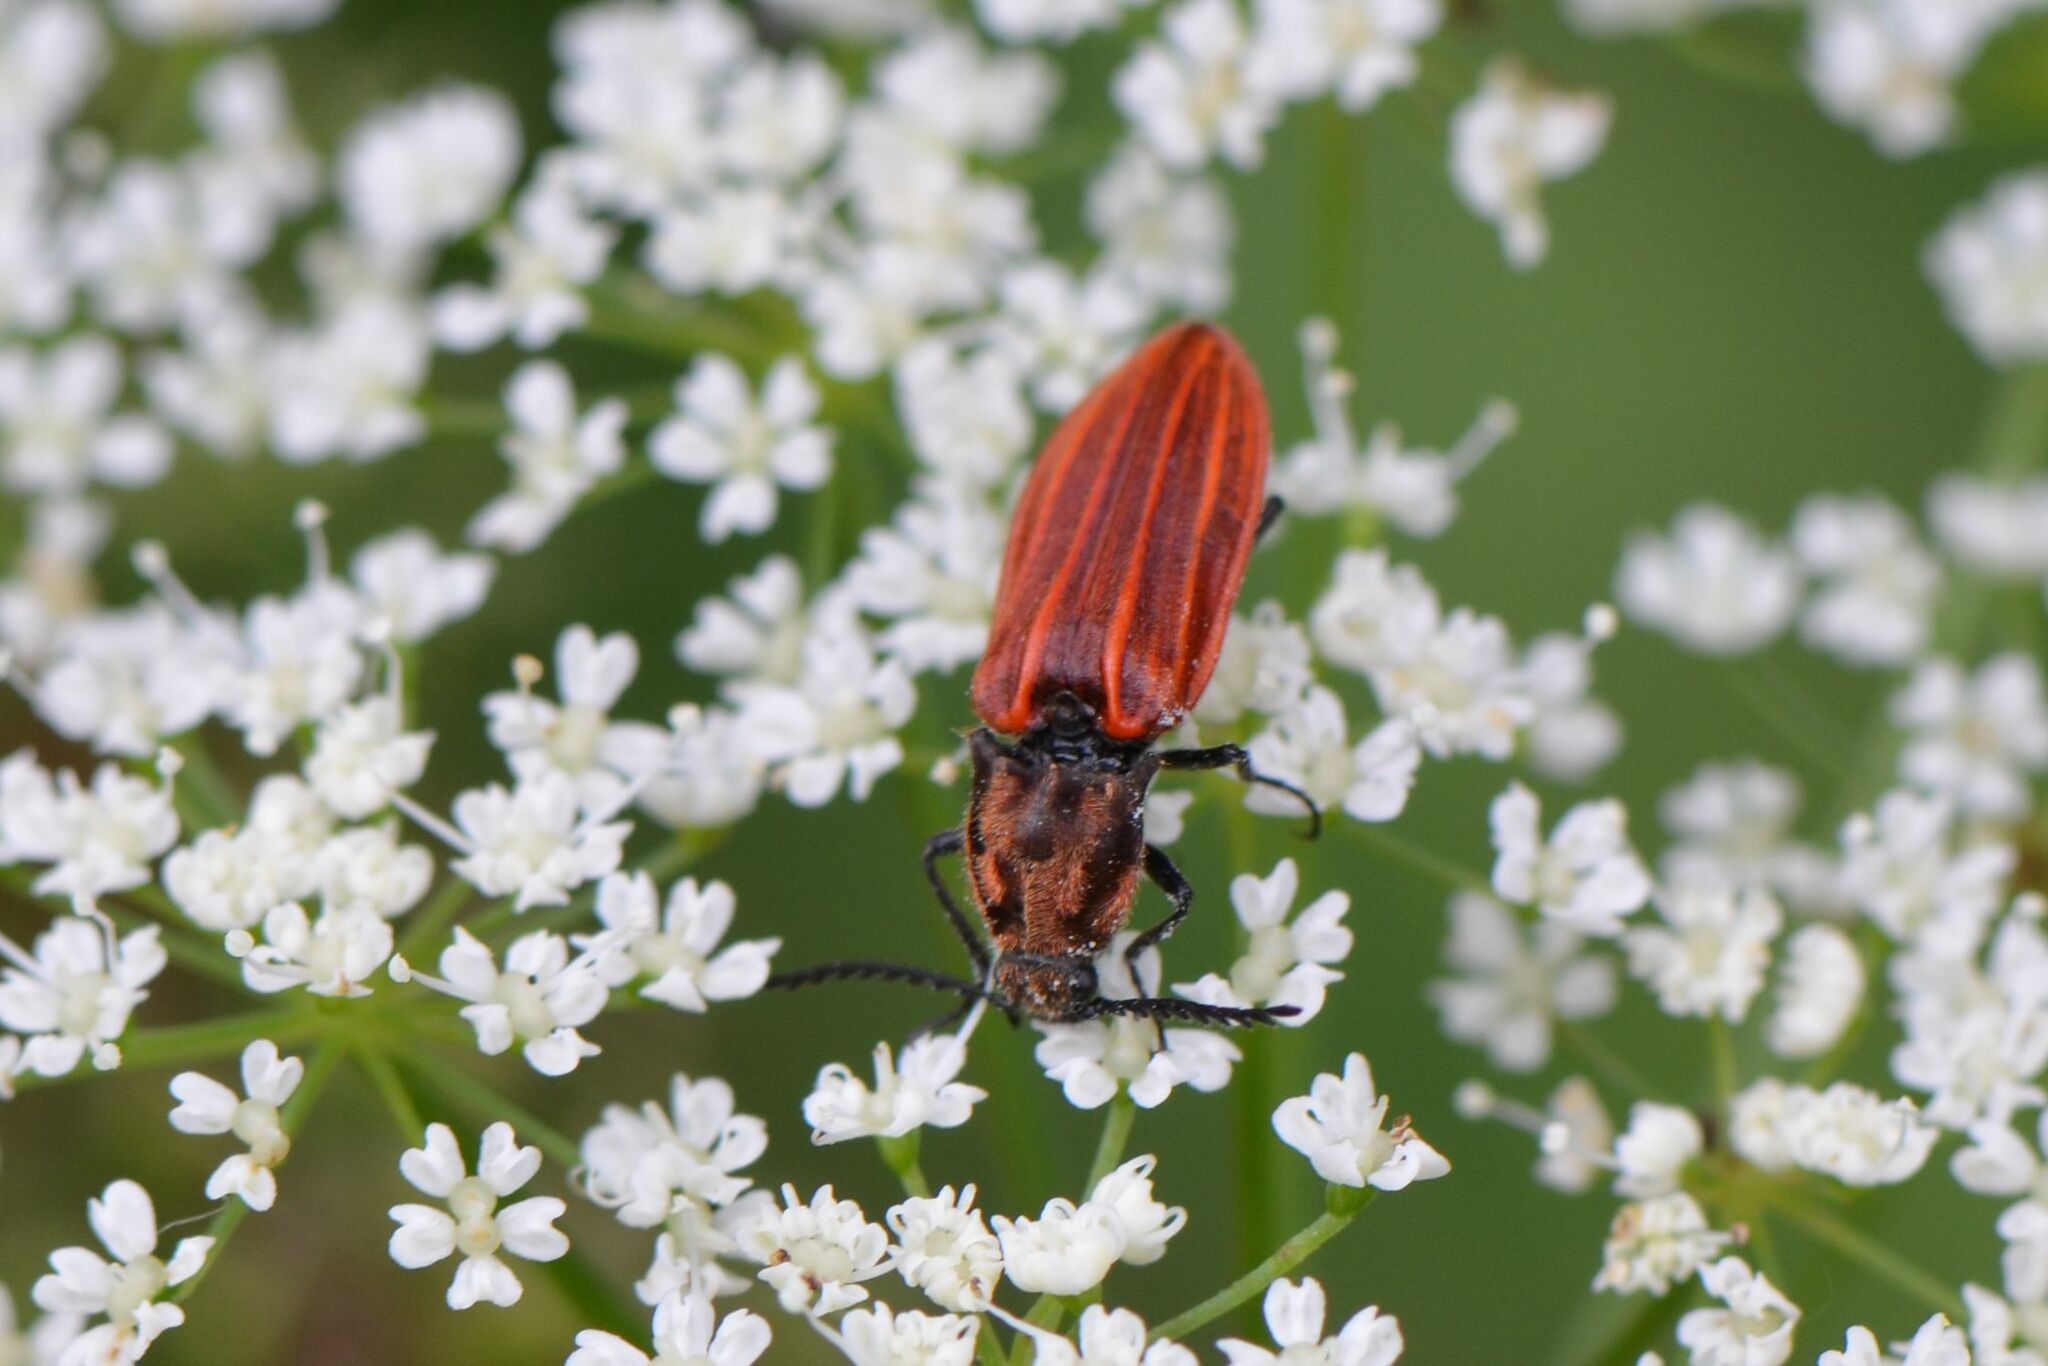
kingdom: Animalia
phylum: Arthropoda
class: Insecta
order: Coleoptera
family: Elateridae
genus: Anostirus
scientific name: Anostirus purpureus
